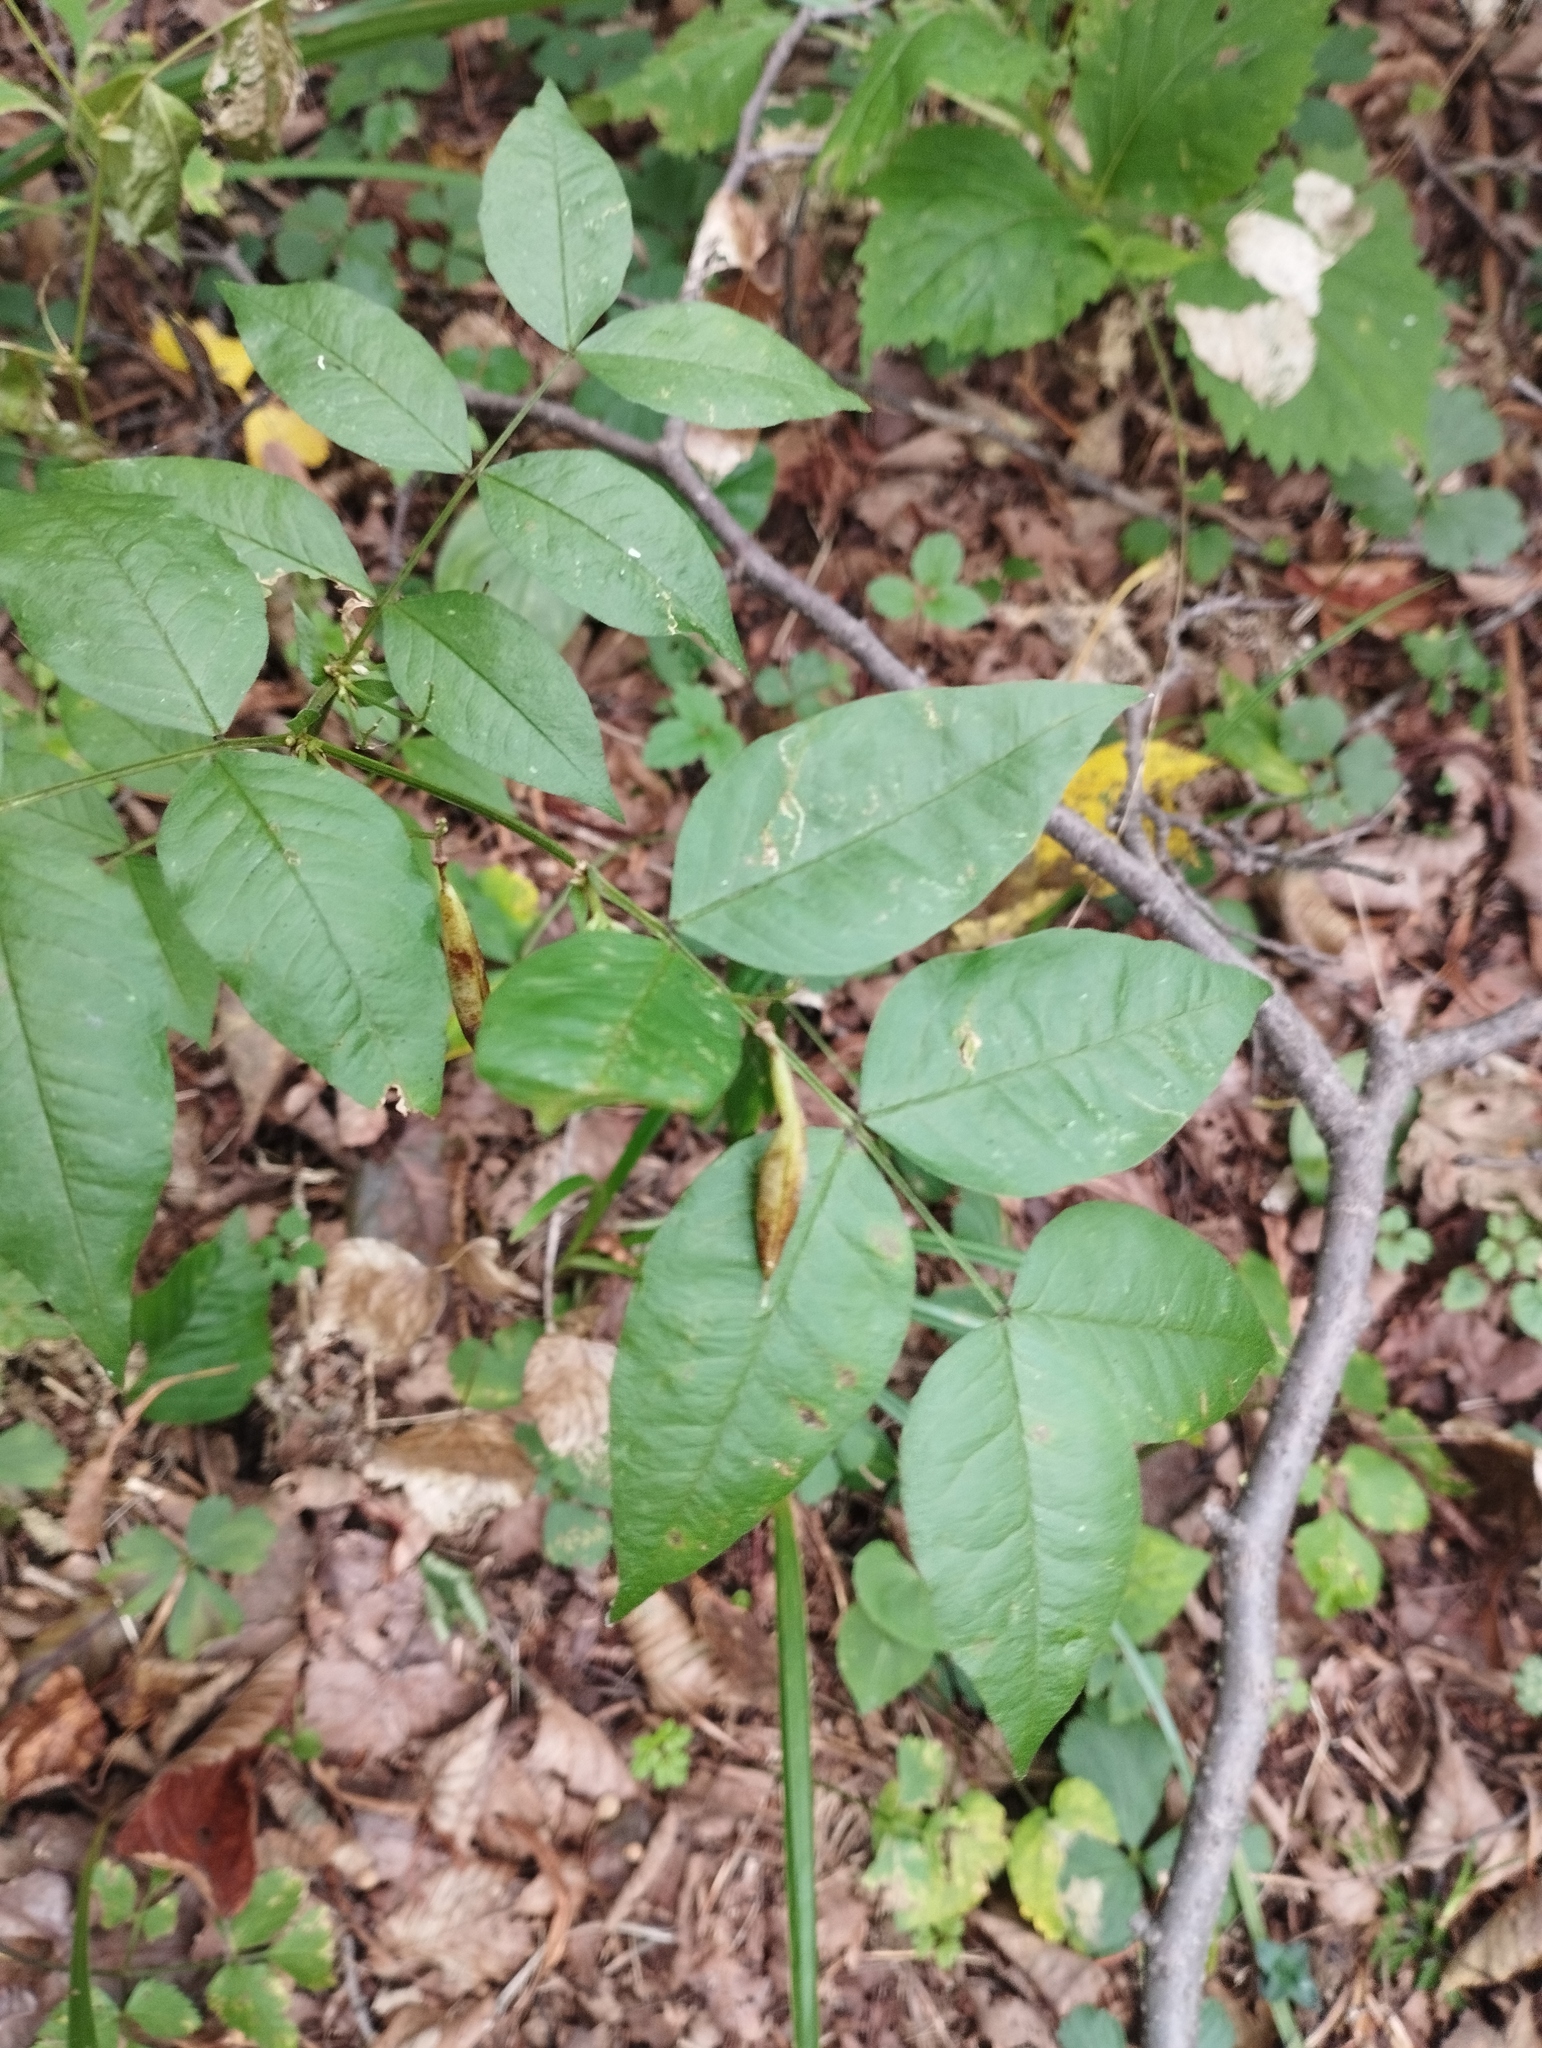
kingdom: Plantae
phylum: Tracheophyta
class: Magnoliopsida
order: Fabales
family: Fabaceae
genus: Vicia
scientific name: Vicia ramuliflora
